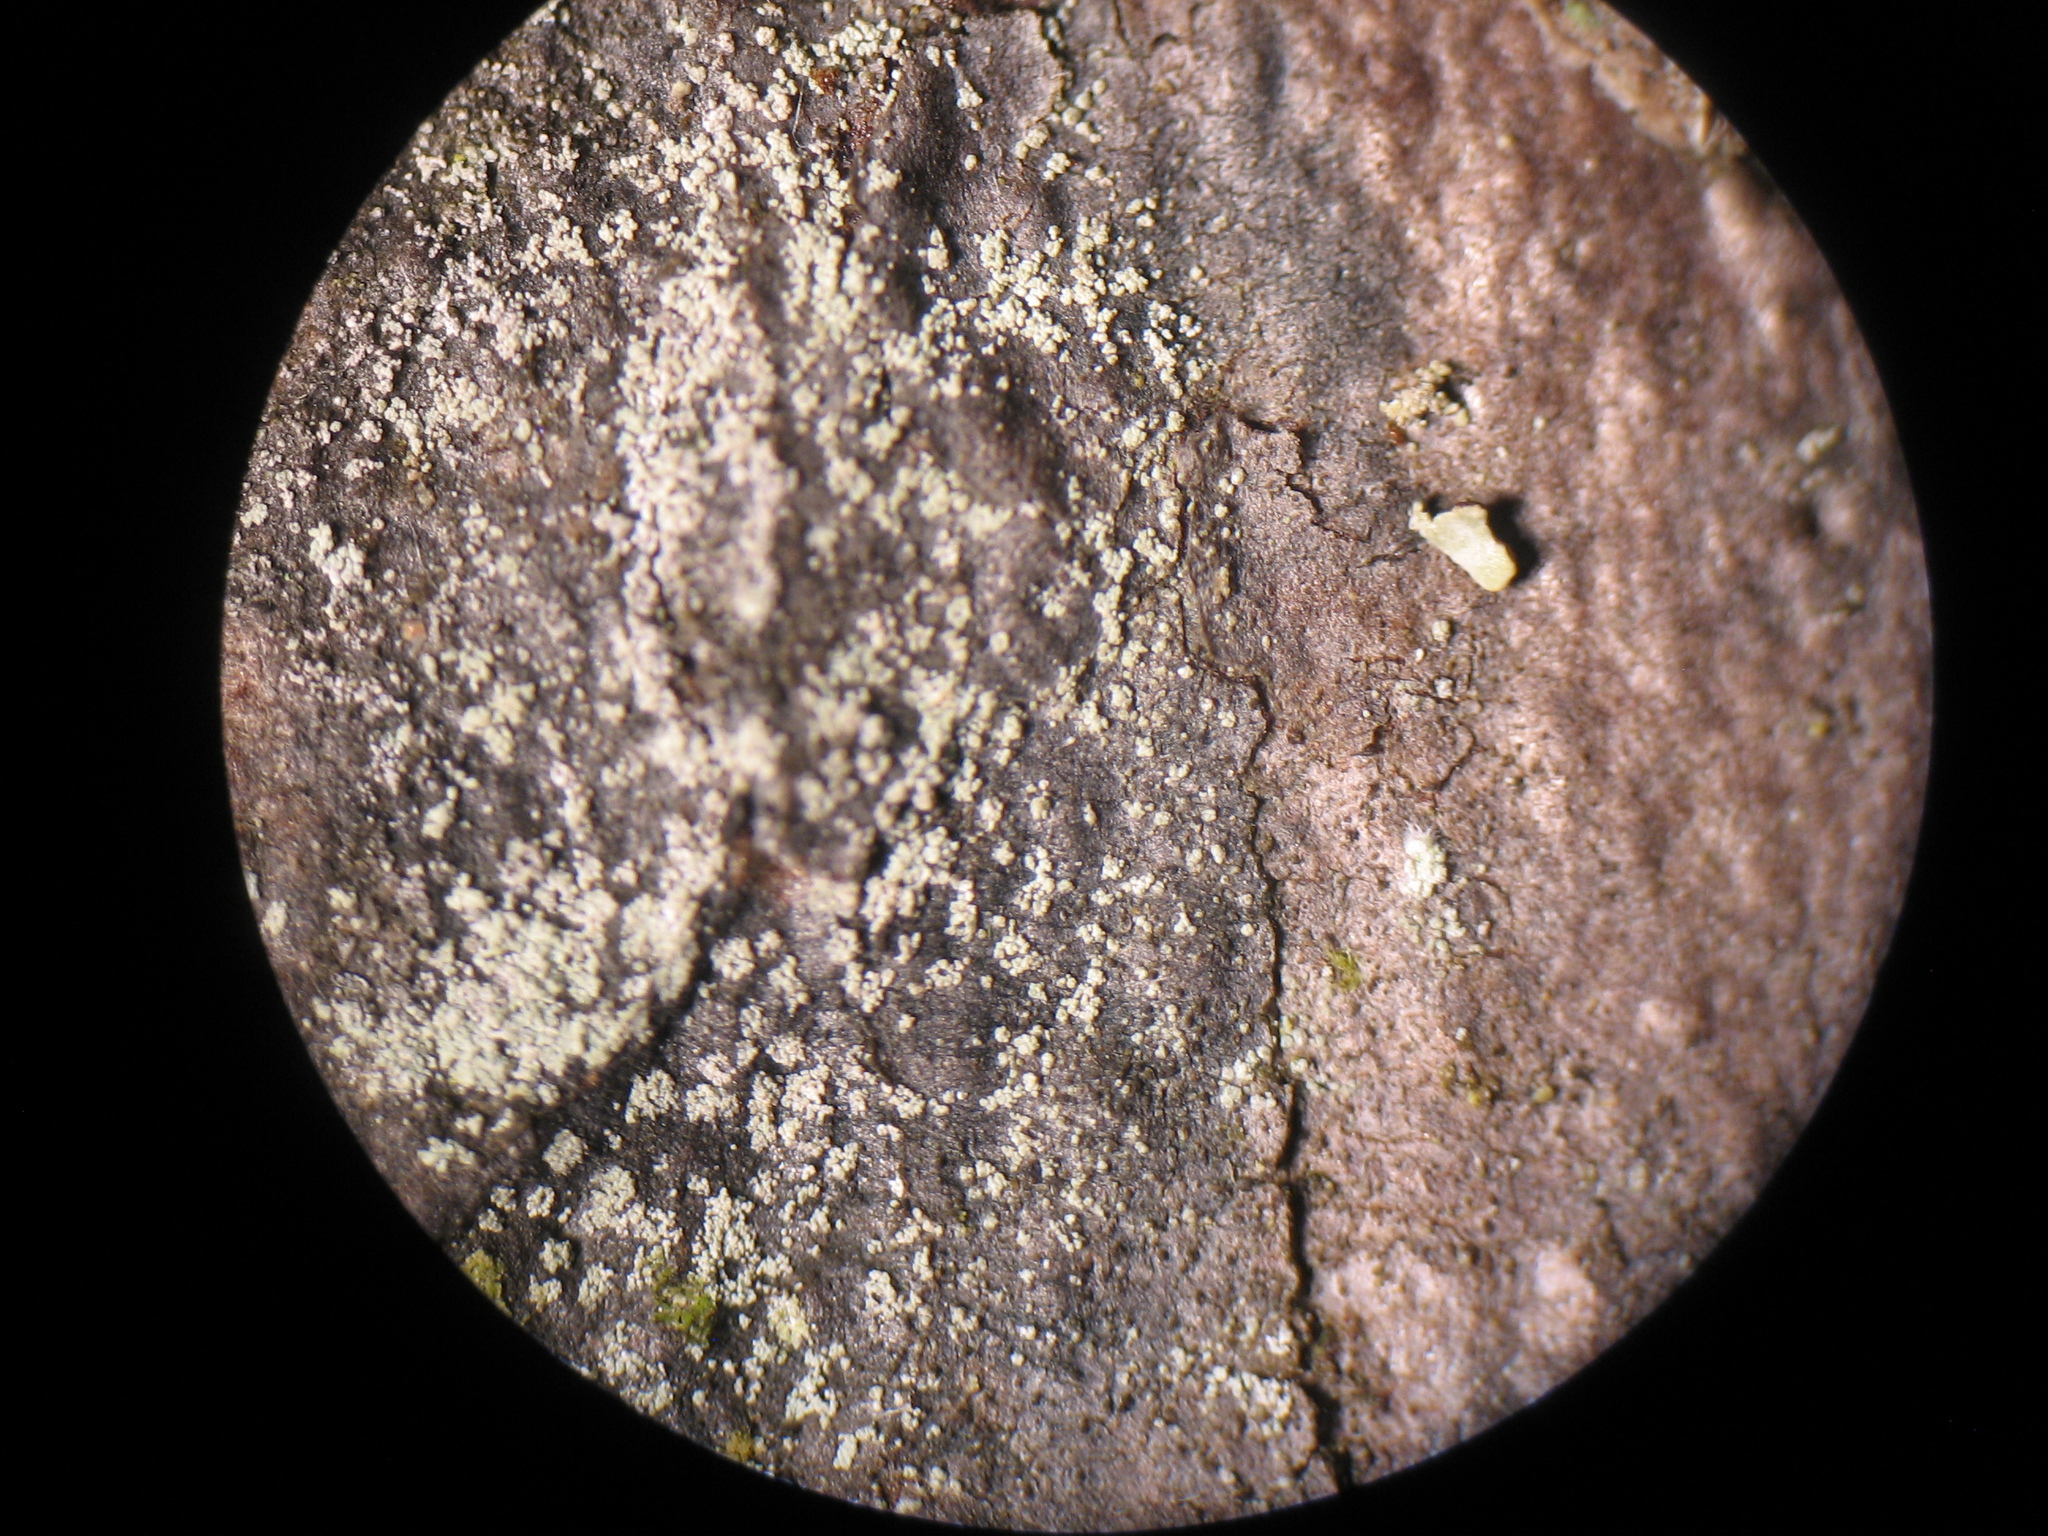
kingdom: Fungi
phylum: Ascomycota
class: Lecanoromycetes
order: Lecideales
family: Lecideaceae
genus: Lecidea
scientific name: Lecidea nylanderi
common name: Nylander's tile lichen
